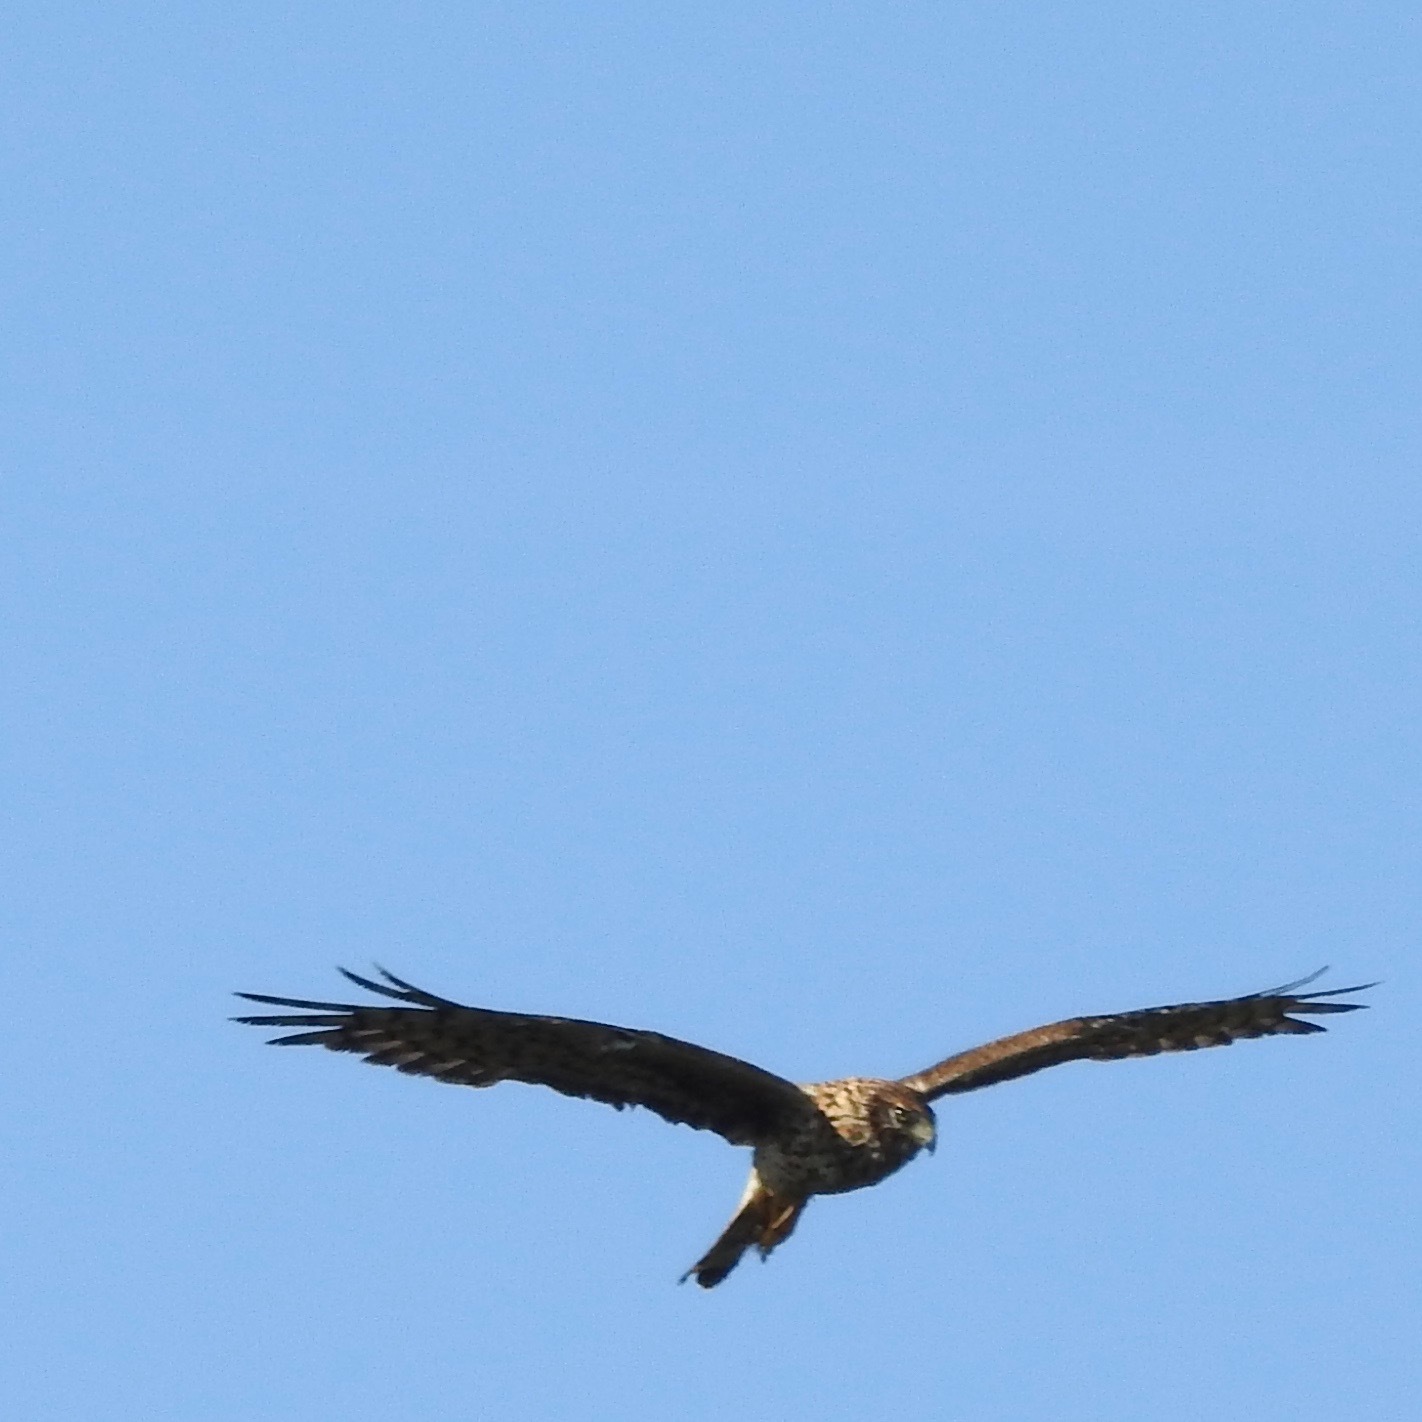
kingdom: Animalia
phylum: Chordata
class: Aves
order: Accipitriformes
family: Accipitridae
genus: Circus
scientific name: Circus cyaneus
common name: Hen harrier
